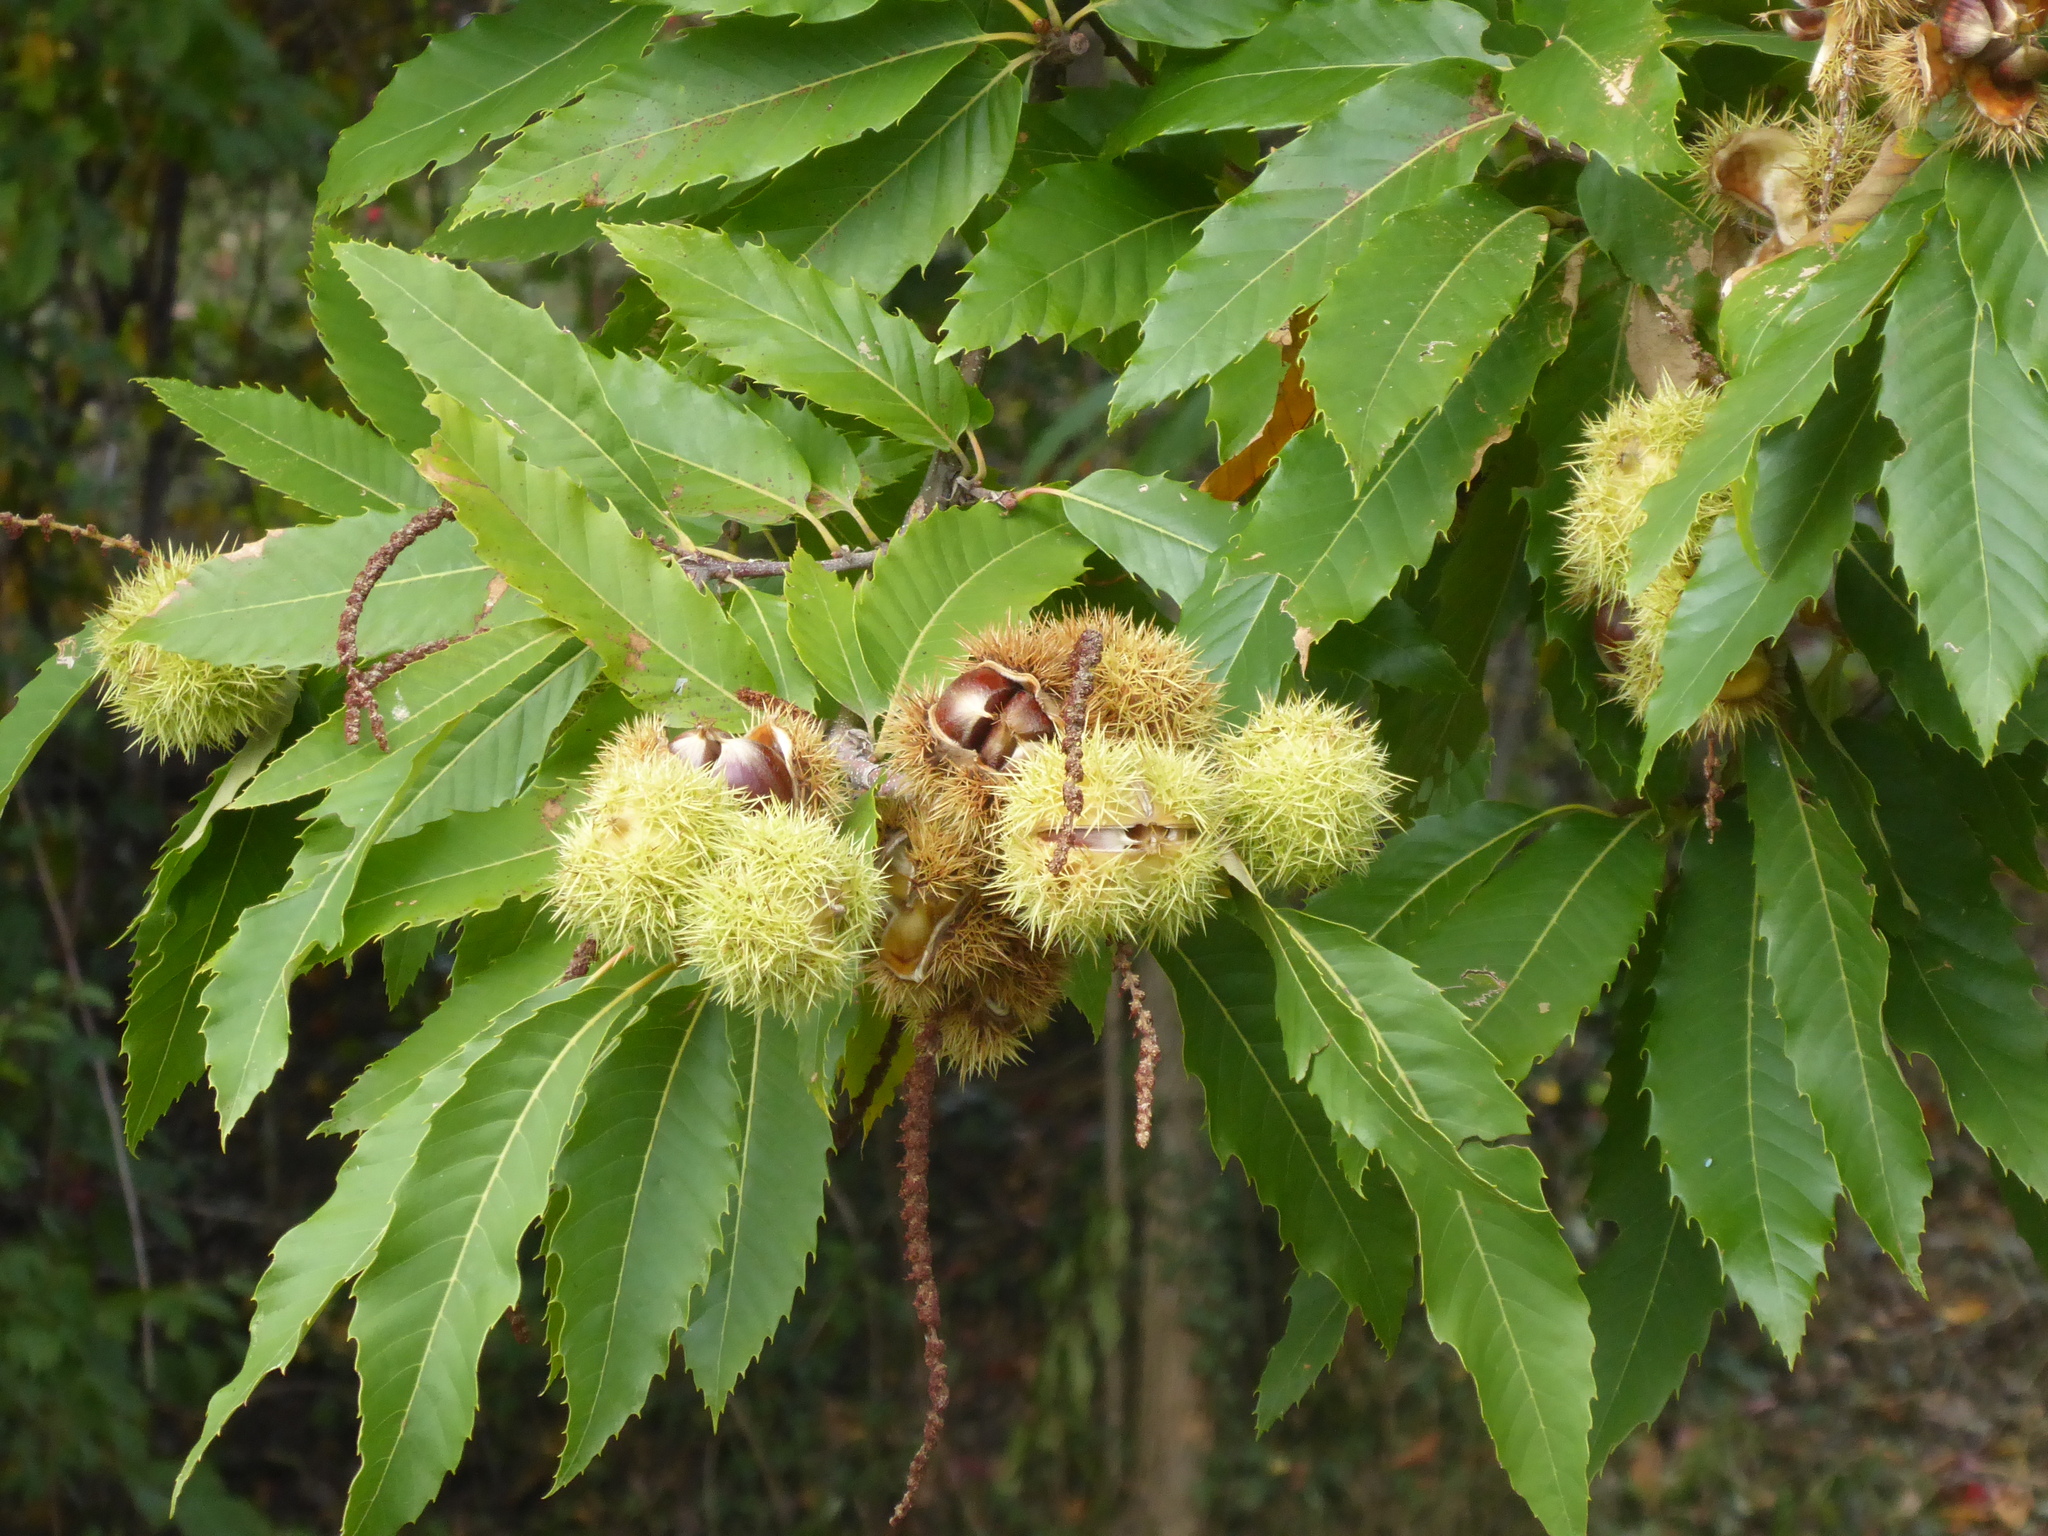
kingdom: Plantae
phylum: Tracheophyta
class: Magnoliopsida
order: Fagales
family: Fagaceae
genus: Castanea
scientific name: Castanea sativa
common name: Sweet chestnut
